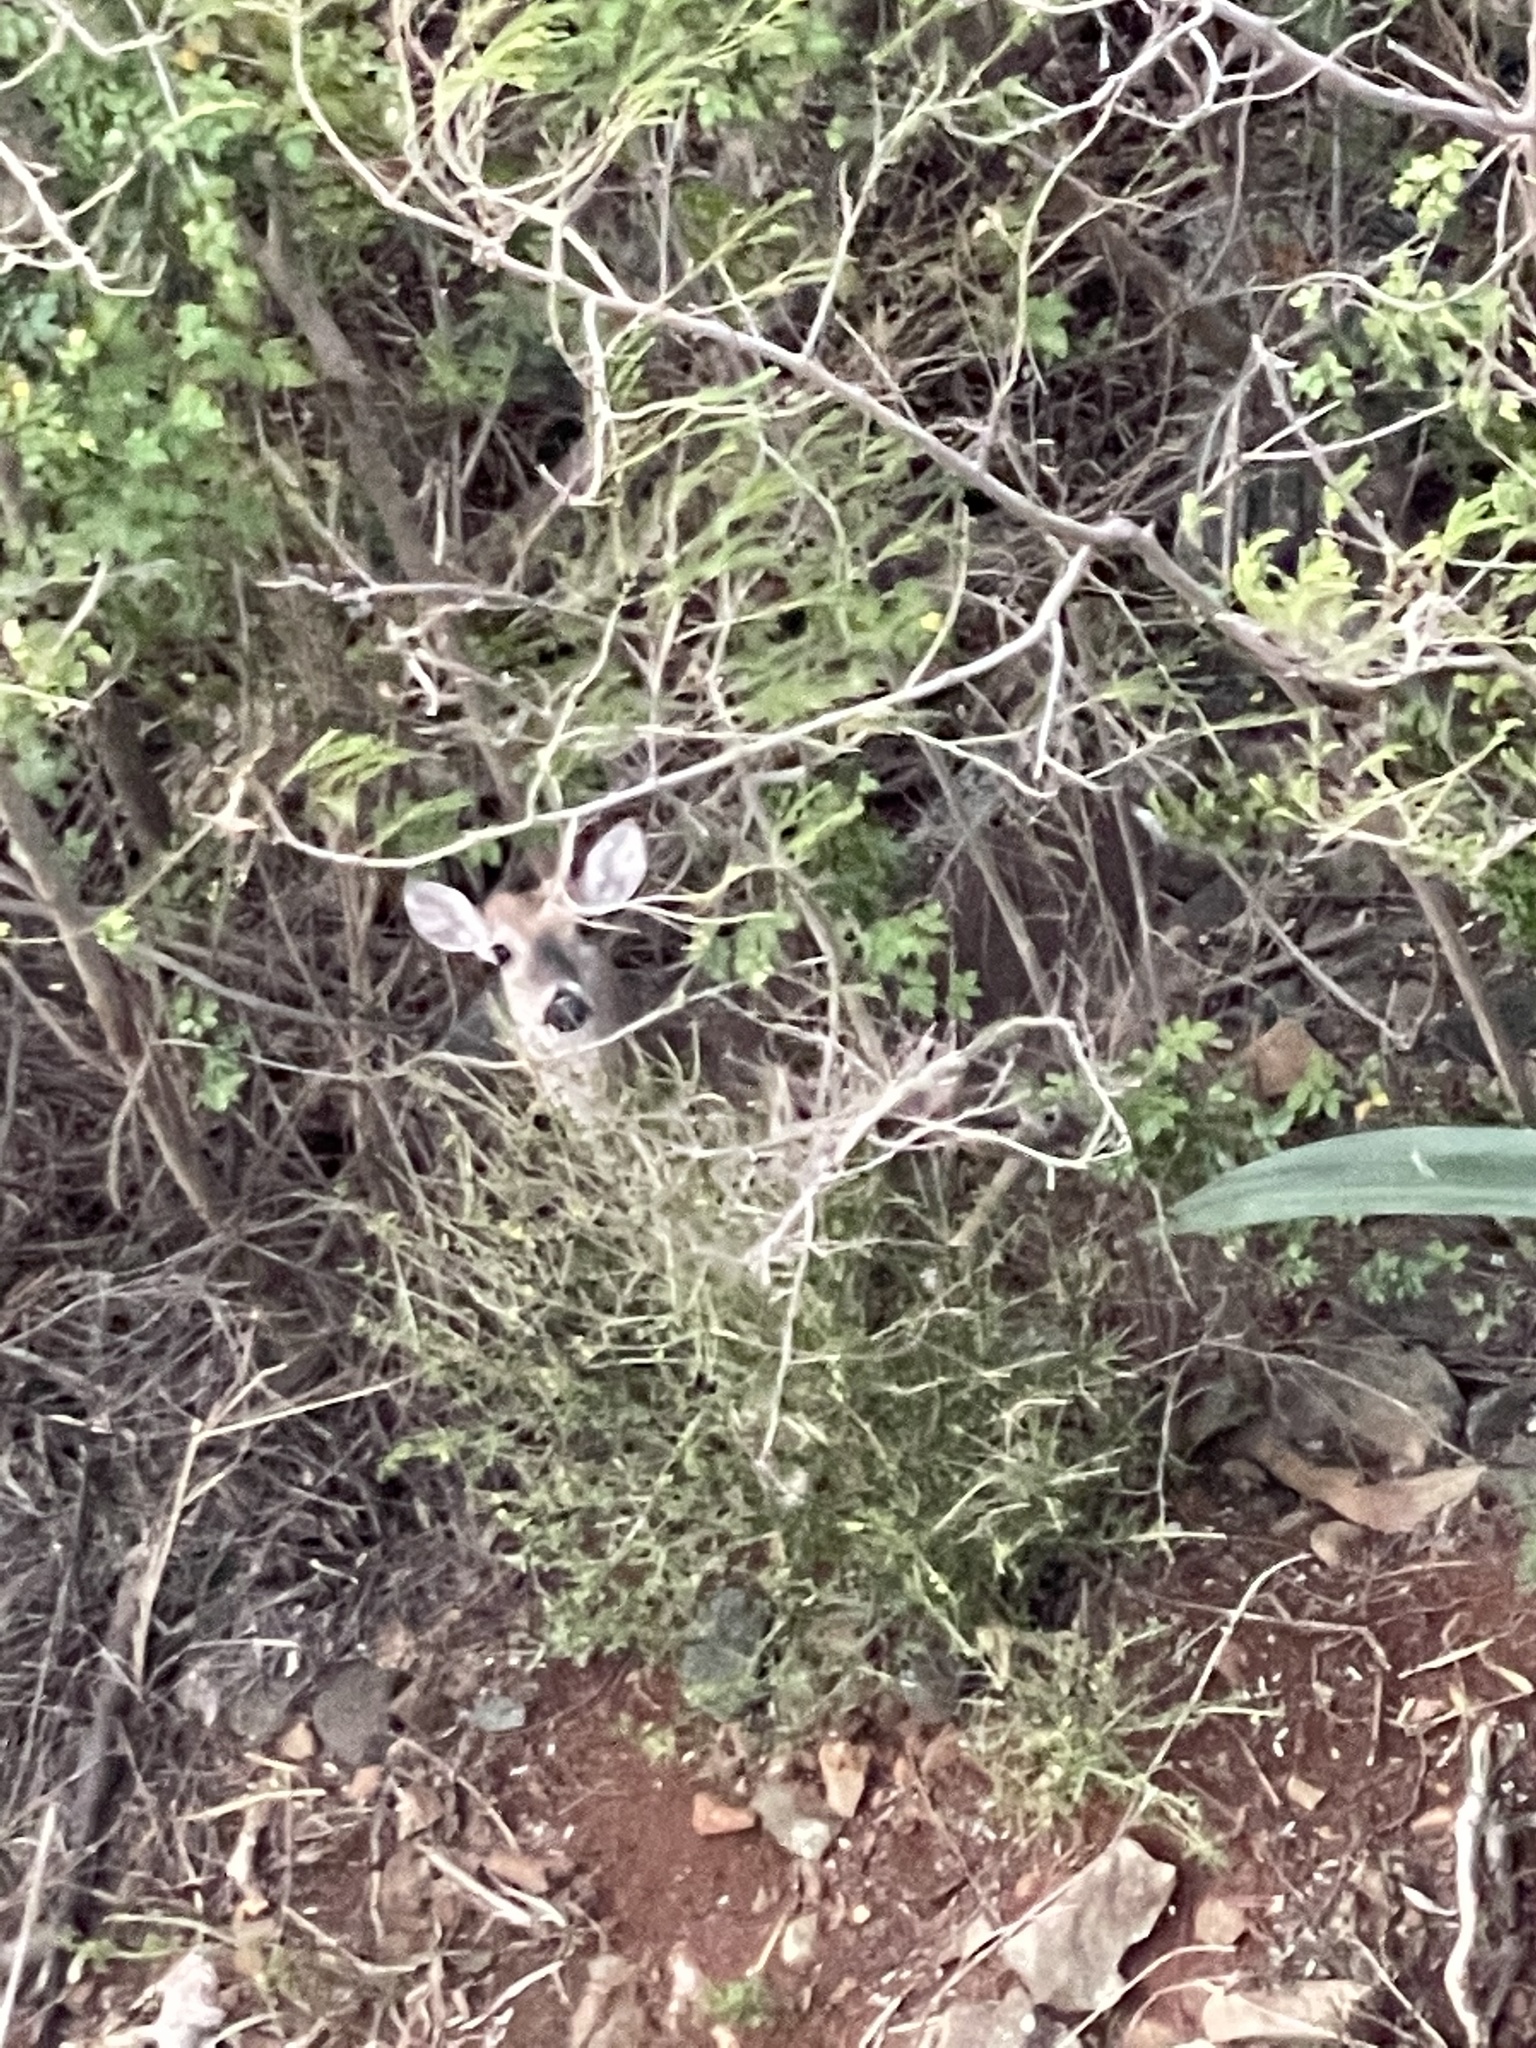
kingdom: Animalia
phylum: Chordata
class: Mammalia
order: Artiodactyla
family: Cervidae
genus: Odocoileus
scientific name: Odocoileus virginianus
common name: White-tailed deer
